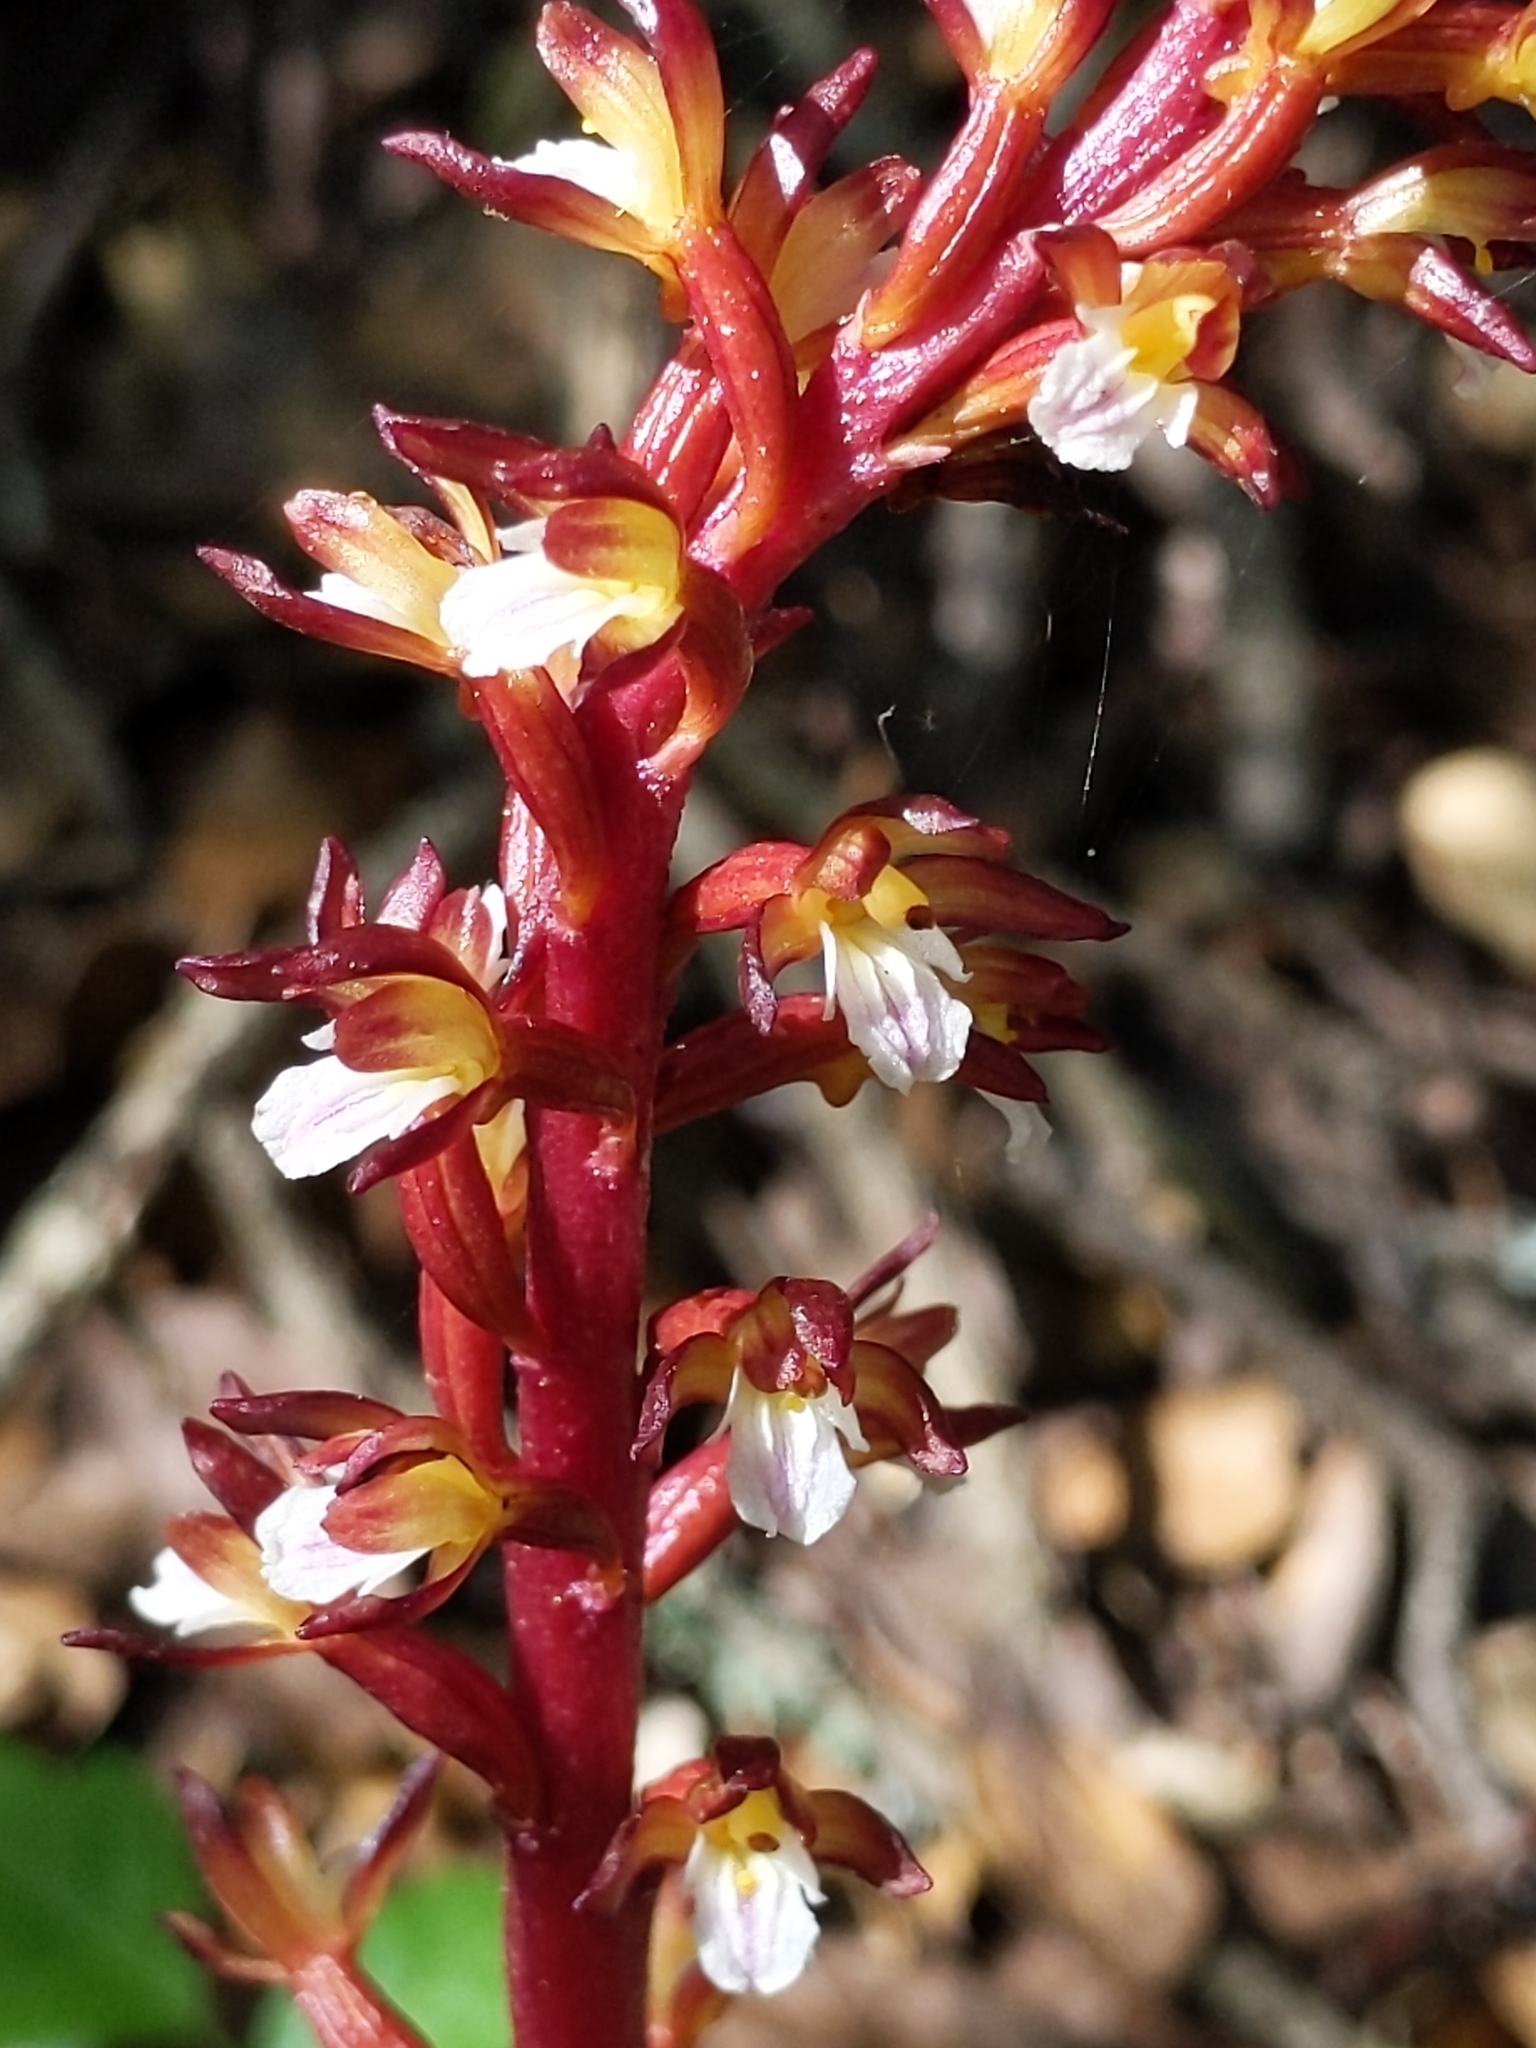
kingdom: Plantae
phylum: Tracheophyta
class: Liliopsida
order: Asparagales
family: Orchidaceae
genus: Corallorhiza
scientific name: Corallorhiza maculata
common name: Spotted coralroot
